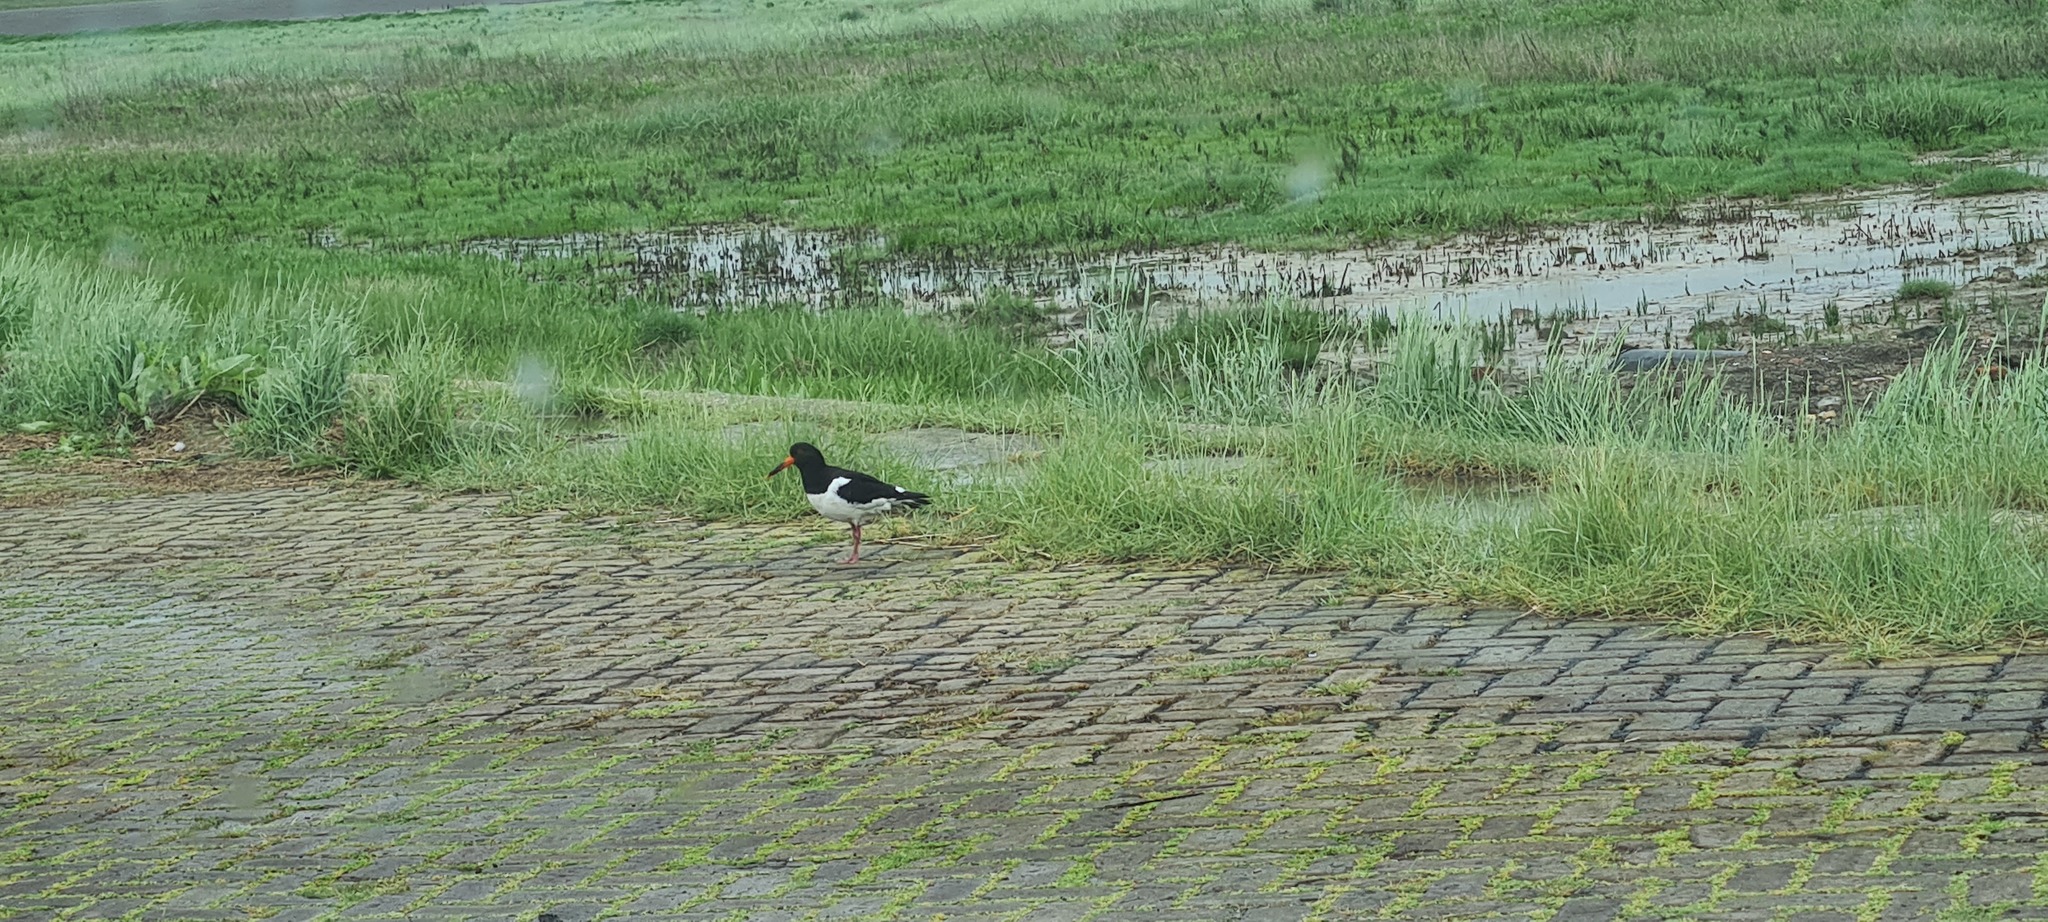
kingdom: Animalia
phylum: Chordata
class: Aves
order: Charadriiformes
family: Haematopodidae
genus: Haematopus
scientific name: Haematopus ostralegus
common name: Eurasian oystercatcher
